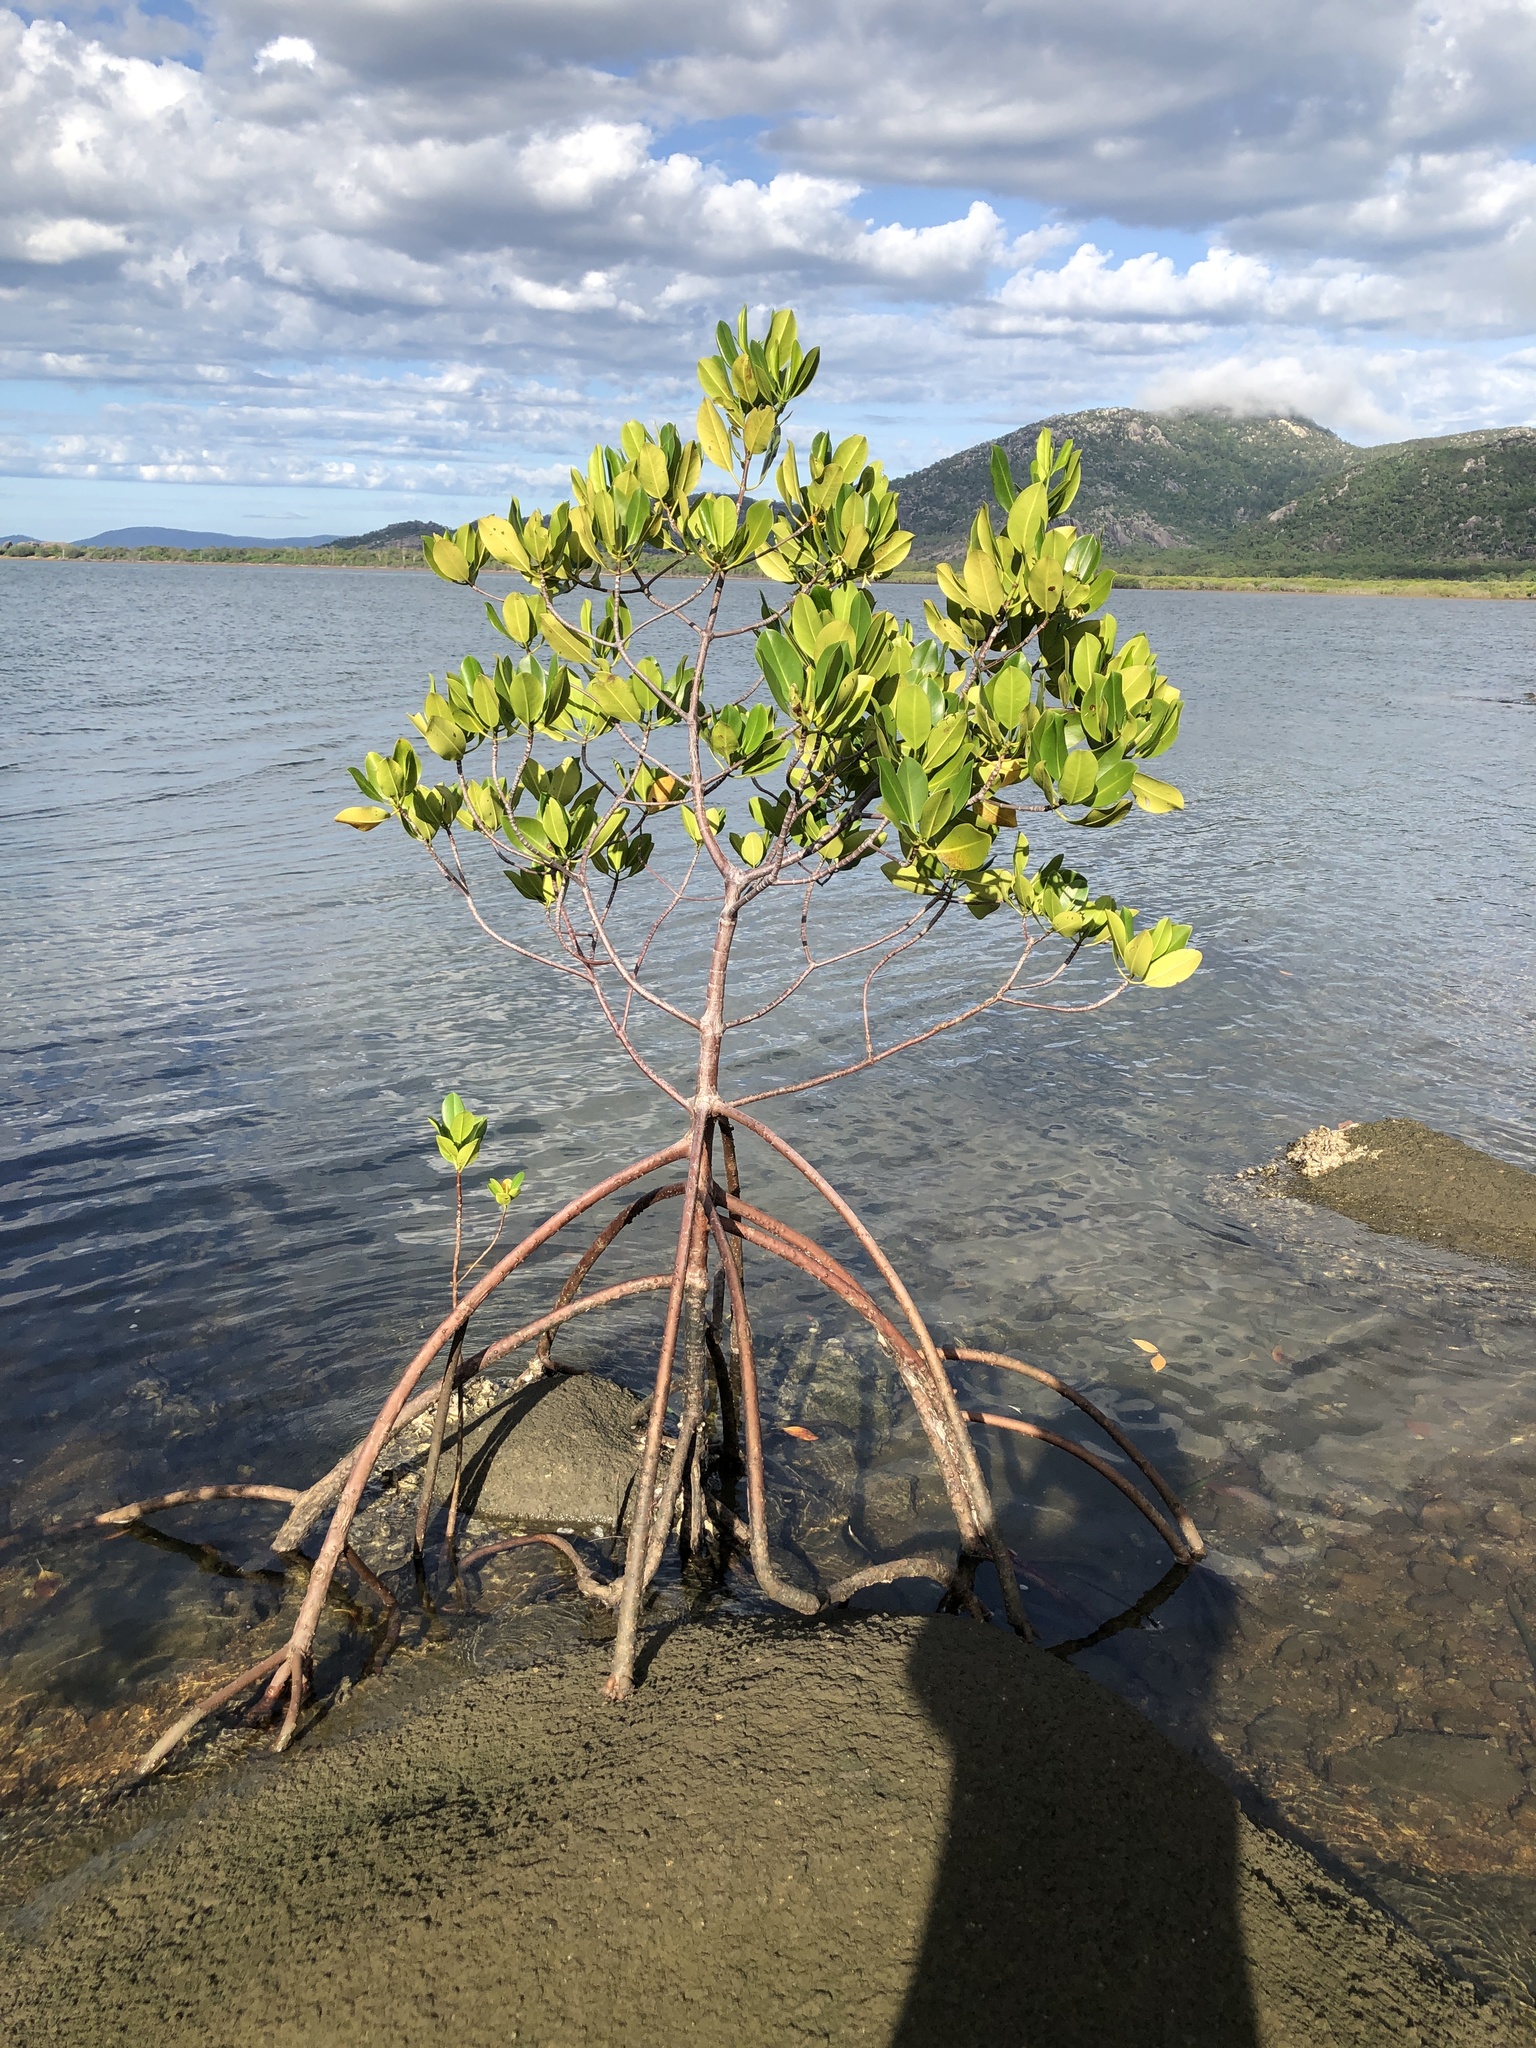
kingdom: Plantae
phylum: Tracheophyta
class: Magnoliopsida
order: Malpighiales
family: Rhizophoraceae
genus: Rhizophora
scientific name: Rhizophora stylosa
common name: Red mangrove
